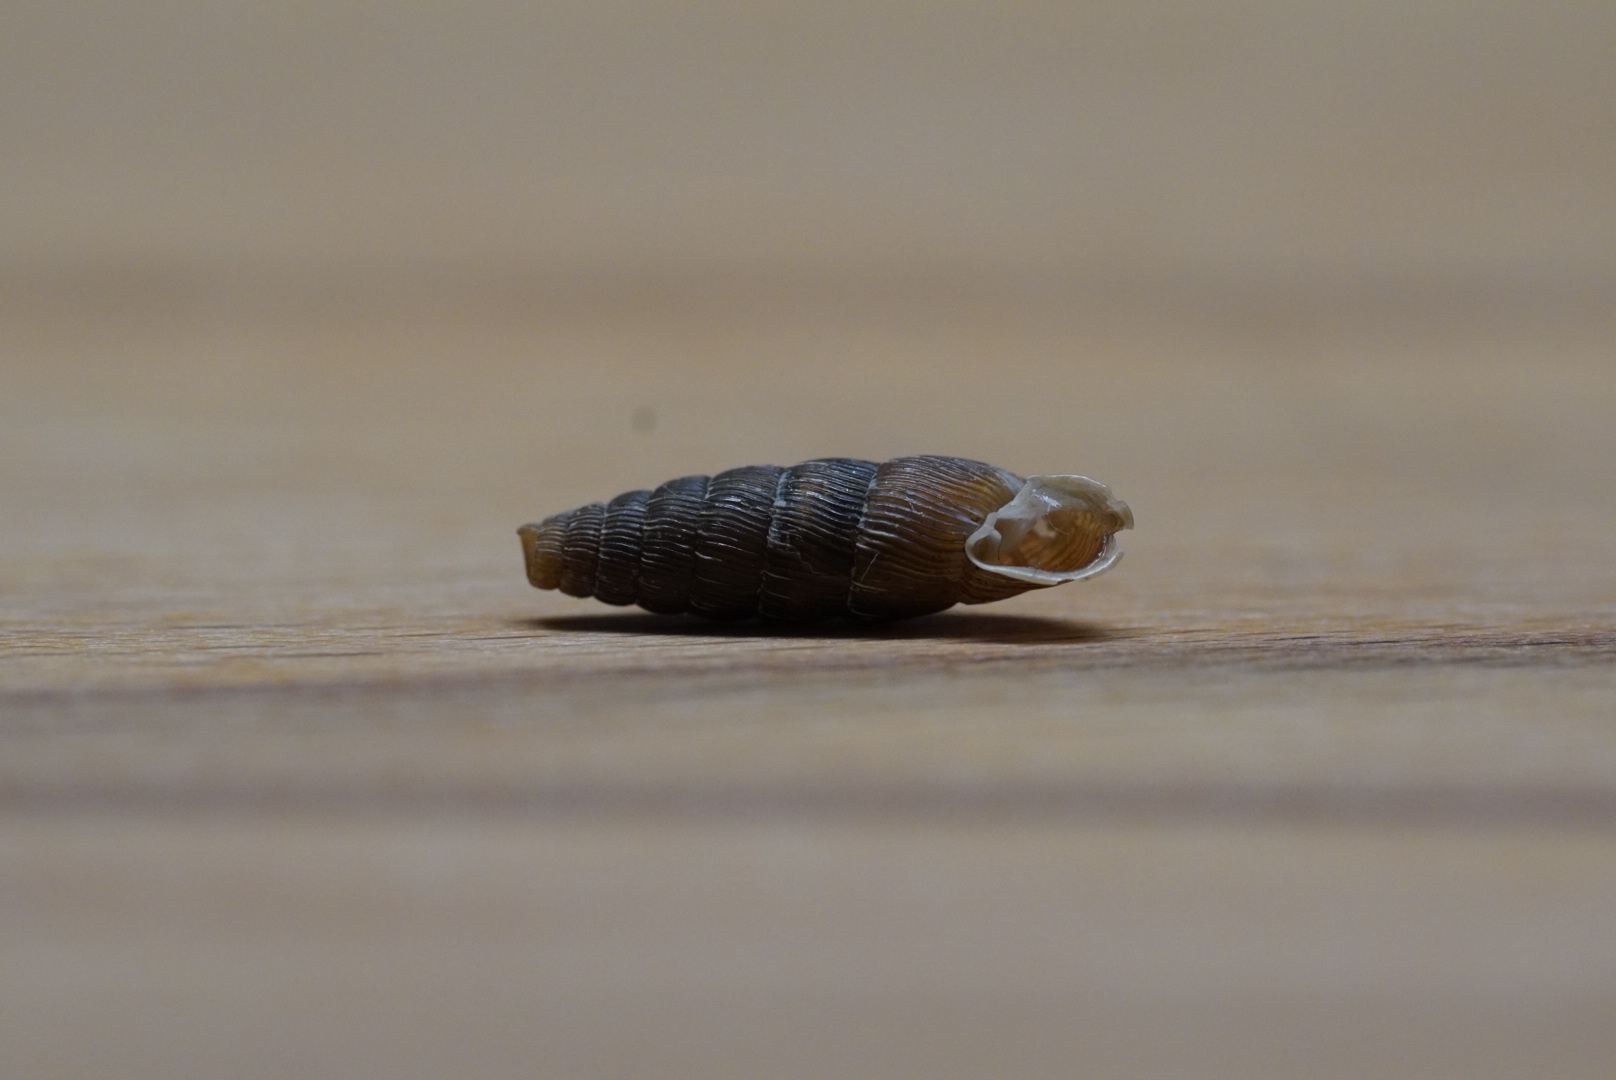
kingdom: Animalia
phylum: Mollusca
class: Gastropoda
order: Stylommatophora
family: Clausiliidae
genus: Alinda
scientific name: Alinda biplicata
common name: Thames door snail
